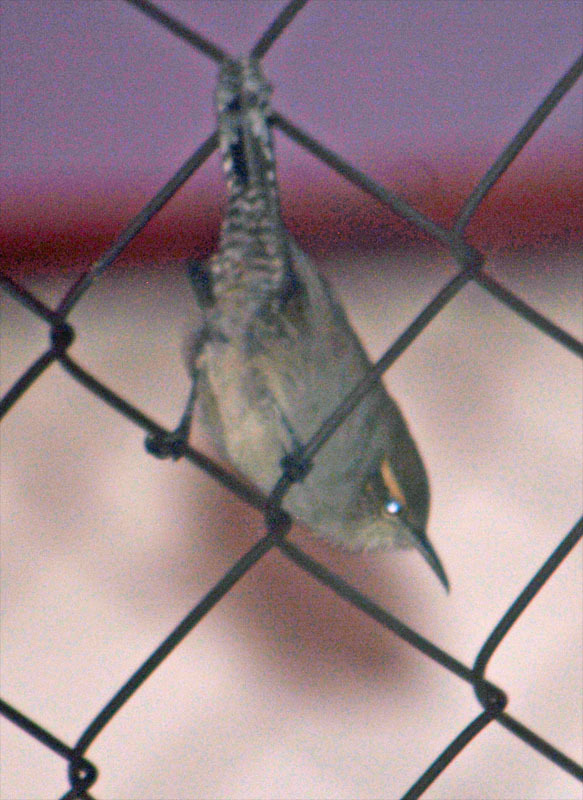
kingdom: Animalia
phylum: Chordata
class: Aves
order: Passeriformes
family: Troglodytidae
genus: Thryomanes
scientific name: Thryomanes bewickii
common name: Bewick's wren
